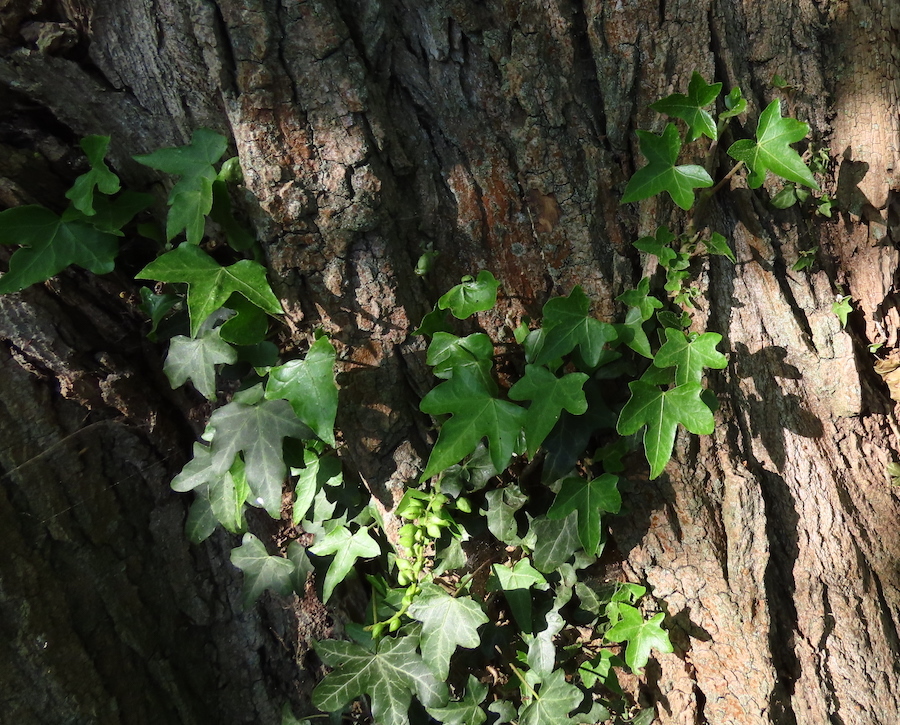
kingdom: Plantae
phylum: Tracheophyta
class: Magnoliopsida
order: Apiales
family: Araliaceae
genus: Hedera
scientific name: Hedera helix
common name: Ivy
